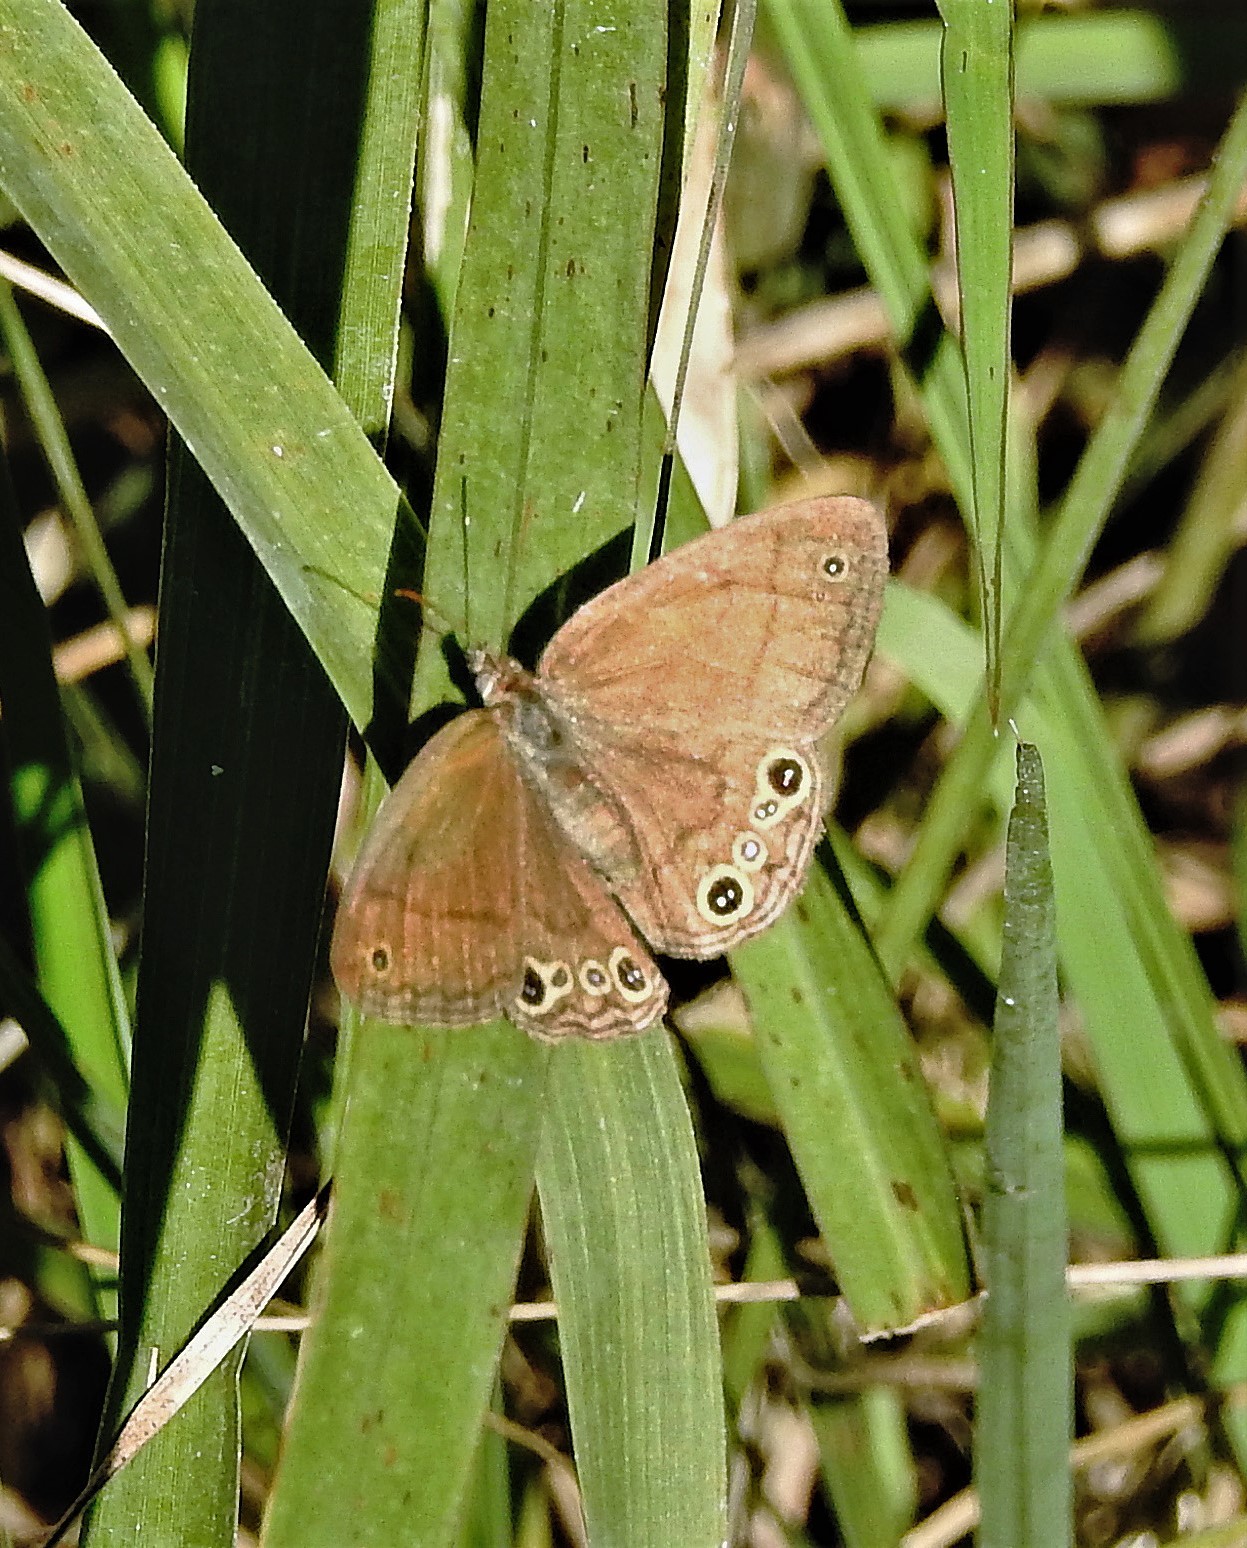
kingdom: Animalia
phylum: Arthropoda
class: Insecta
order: Lepidoptera
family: Nymphalidae
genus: Pharneuptychia
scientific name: Pharneuptychia phares
